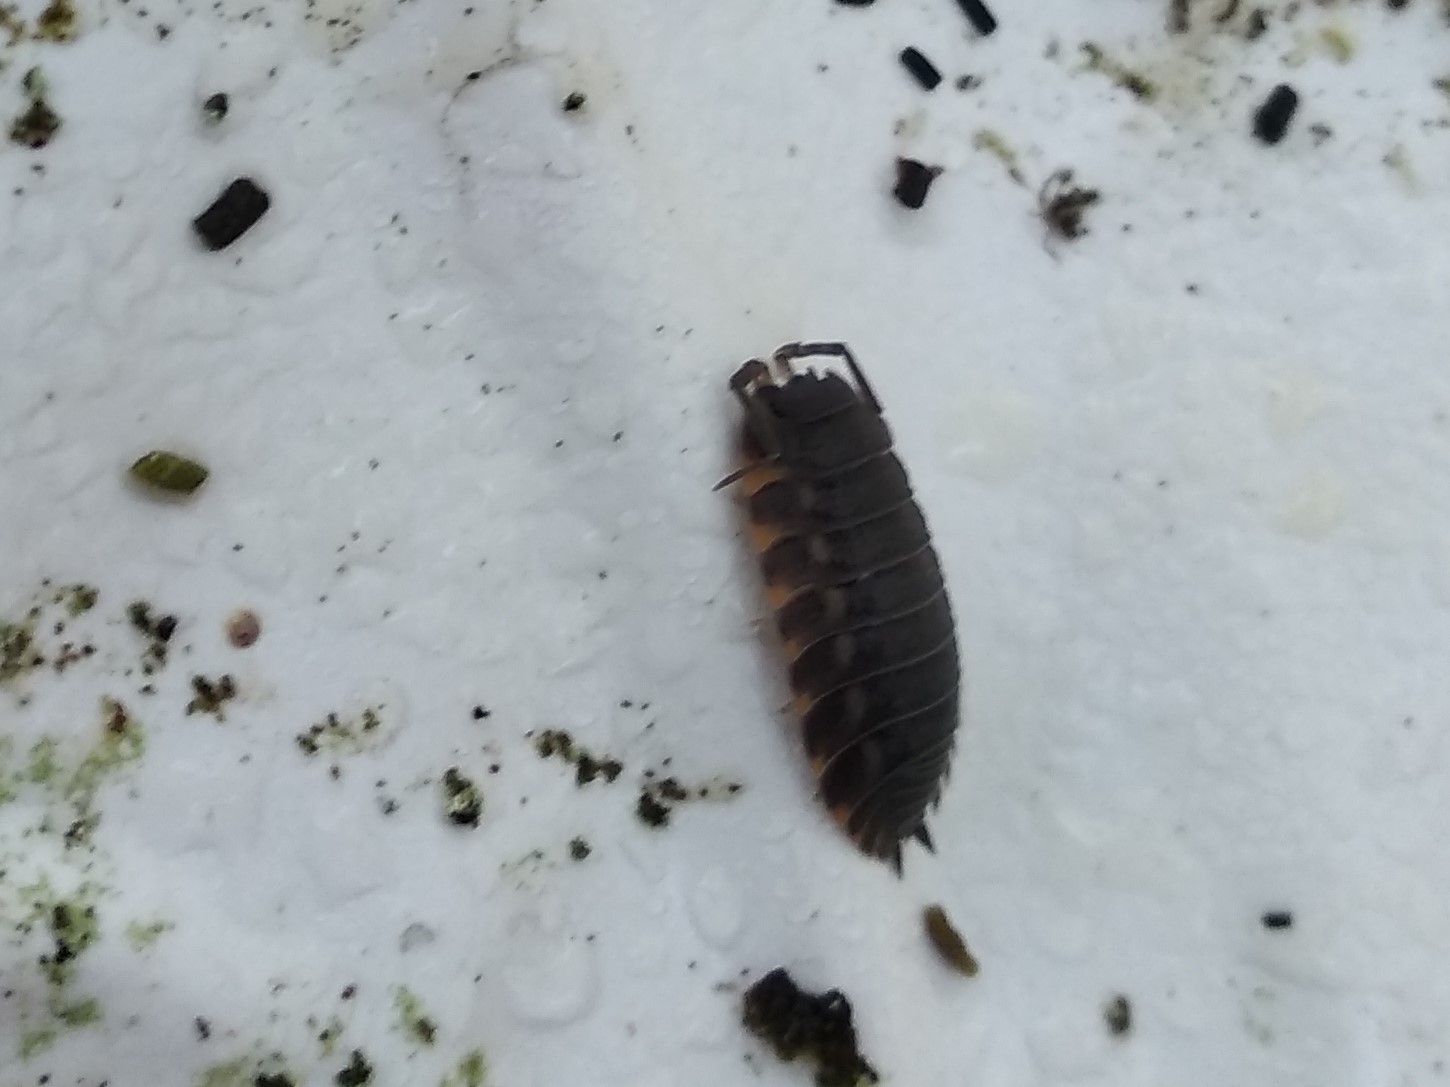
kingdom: Animalia
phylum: Arthropoda
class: Malacostraca
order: Isopoda
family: Trachelipodidae
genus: Trachelipus
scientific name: Trachelipus ratzeburgii
